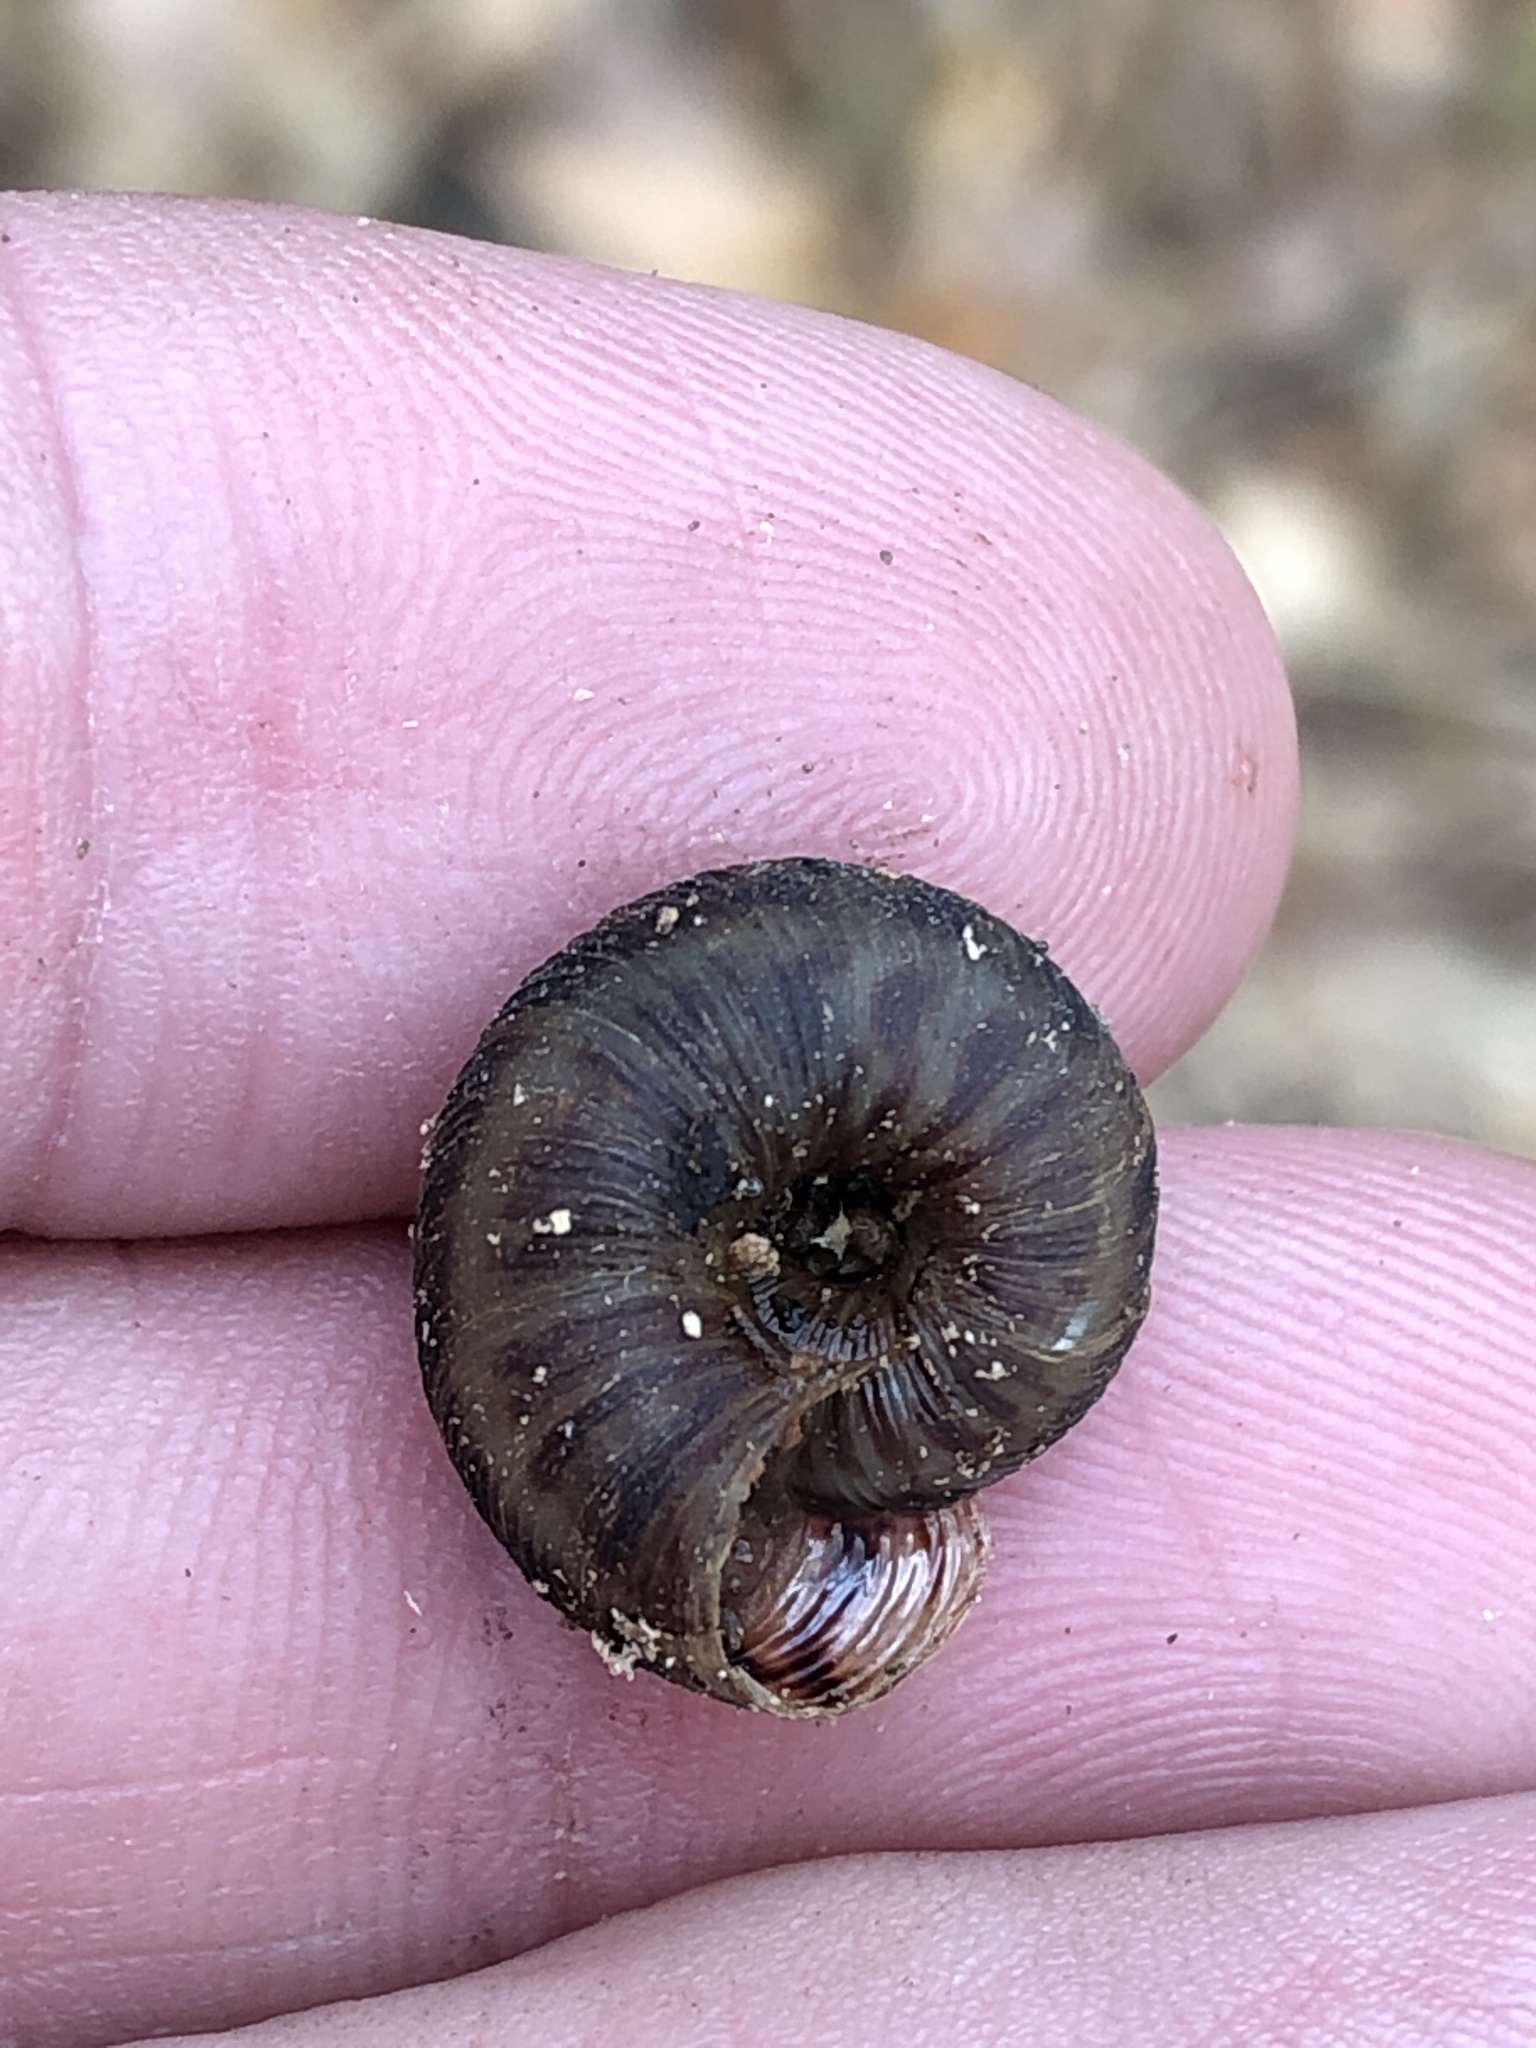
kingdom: Animalia
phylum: Mollusca
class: Gastropoda
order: Stylommatophora
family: Discidae
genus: Anguispira
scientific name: Anguispira strongylodes
